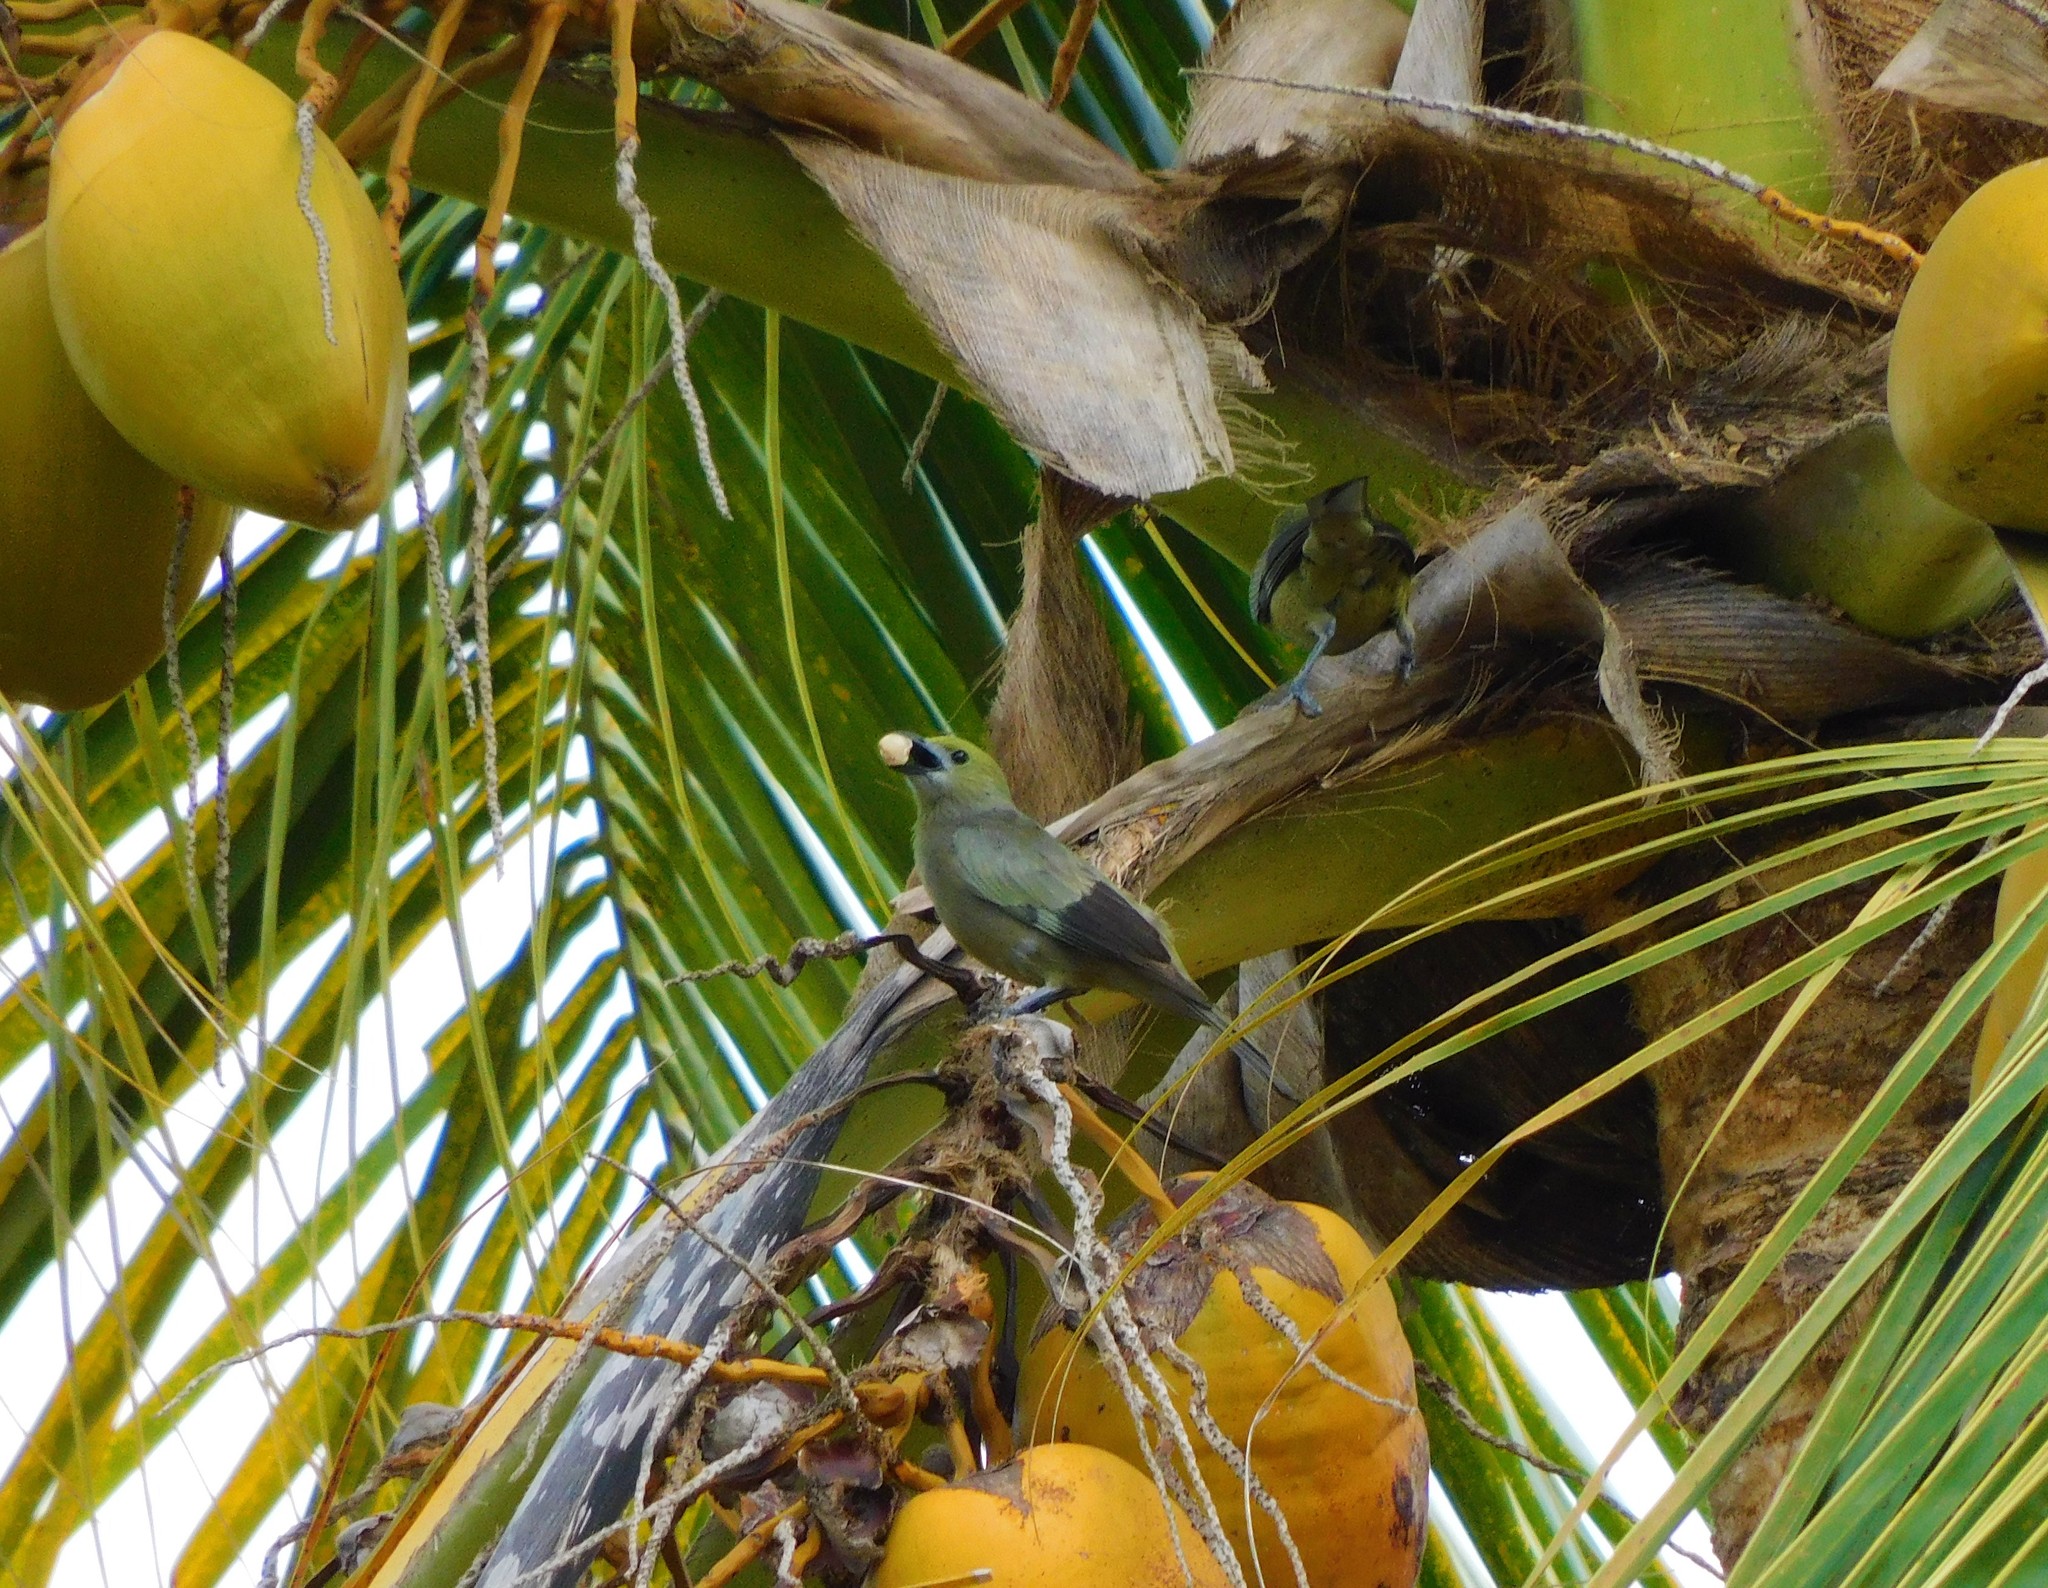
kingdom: Animalia
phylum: Chordata
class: Aves
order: Passeriformes
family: Thraupidae
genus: Thraupis
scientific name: Thraupis palmarum
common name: Palm tanager
